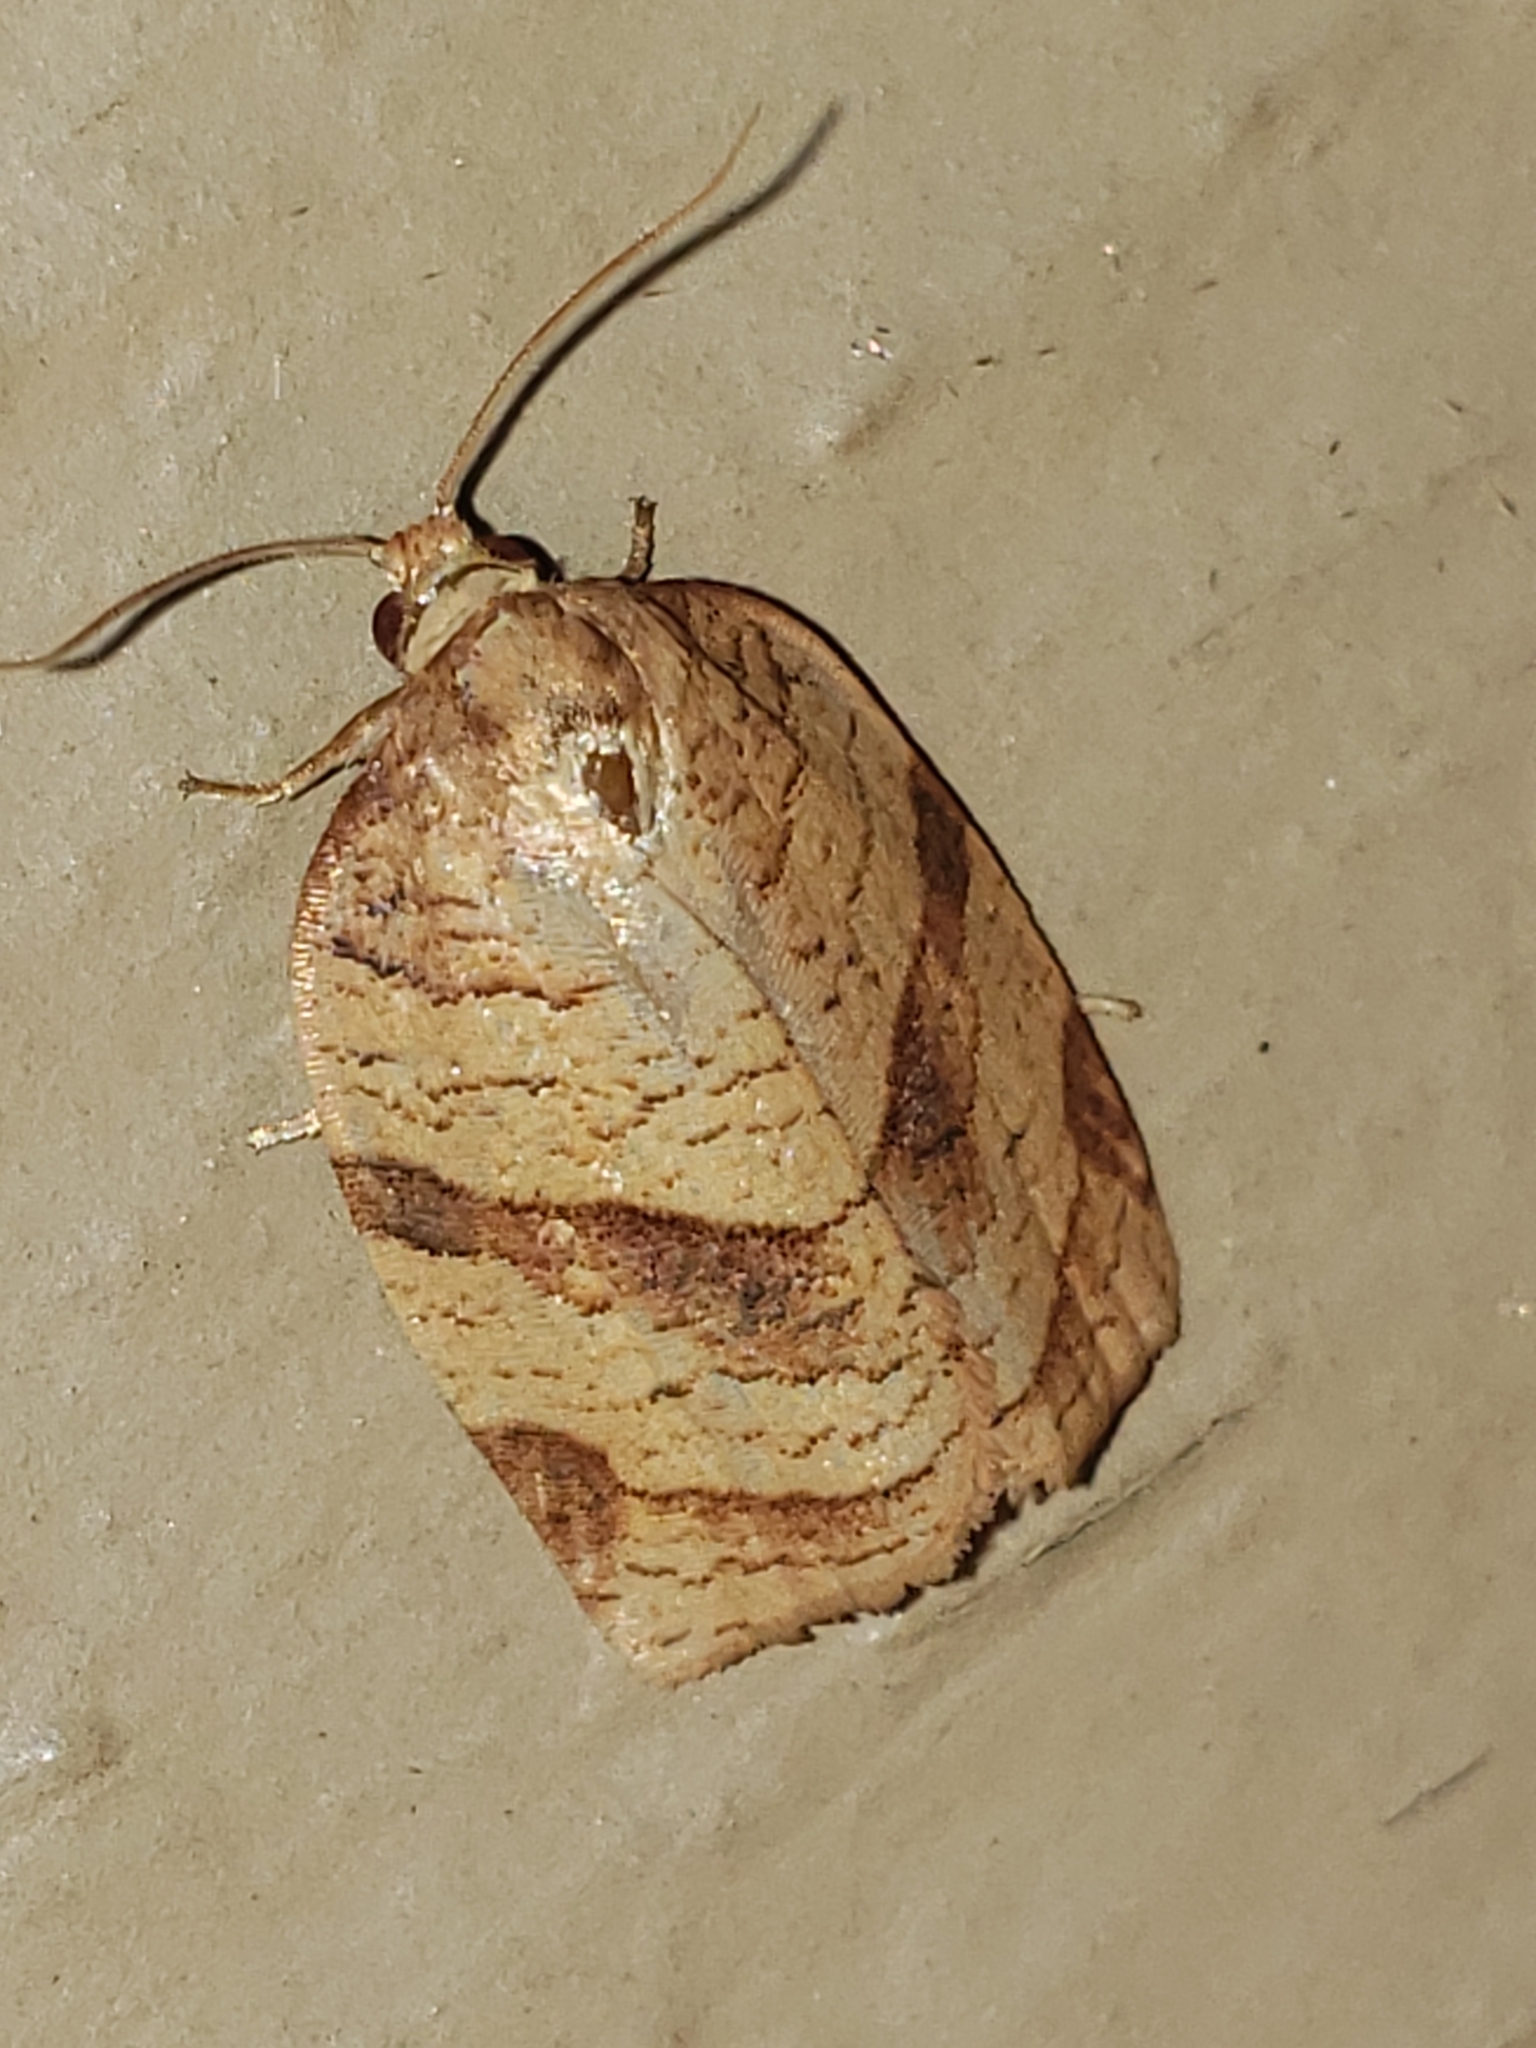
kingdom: Animalia
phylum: Arthropoda
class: Insecta
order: Lepidoptera
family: Tortricidae
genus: Choristoneura
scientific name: Choristoneura parallela
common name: Parallel-banded leafroller moth
